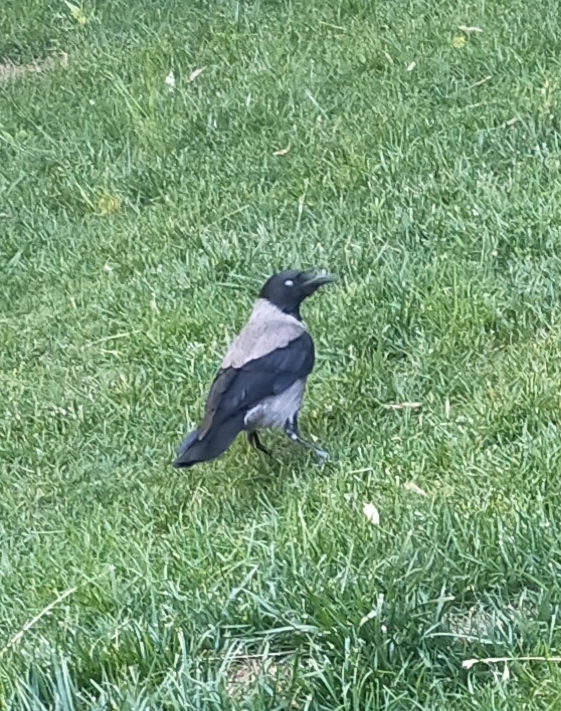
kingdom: Animalia
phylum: Chordata
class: Aves
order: Passeriformes
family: Corvidae
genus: Corvus
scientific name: Corvus cornix
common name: Hooded crow
